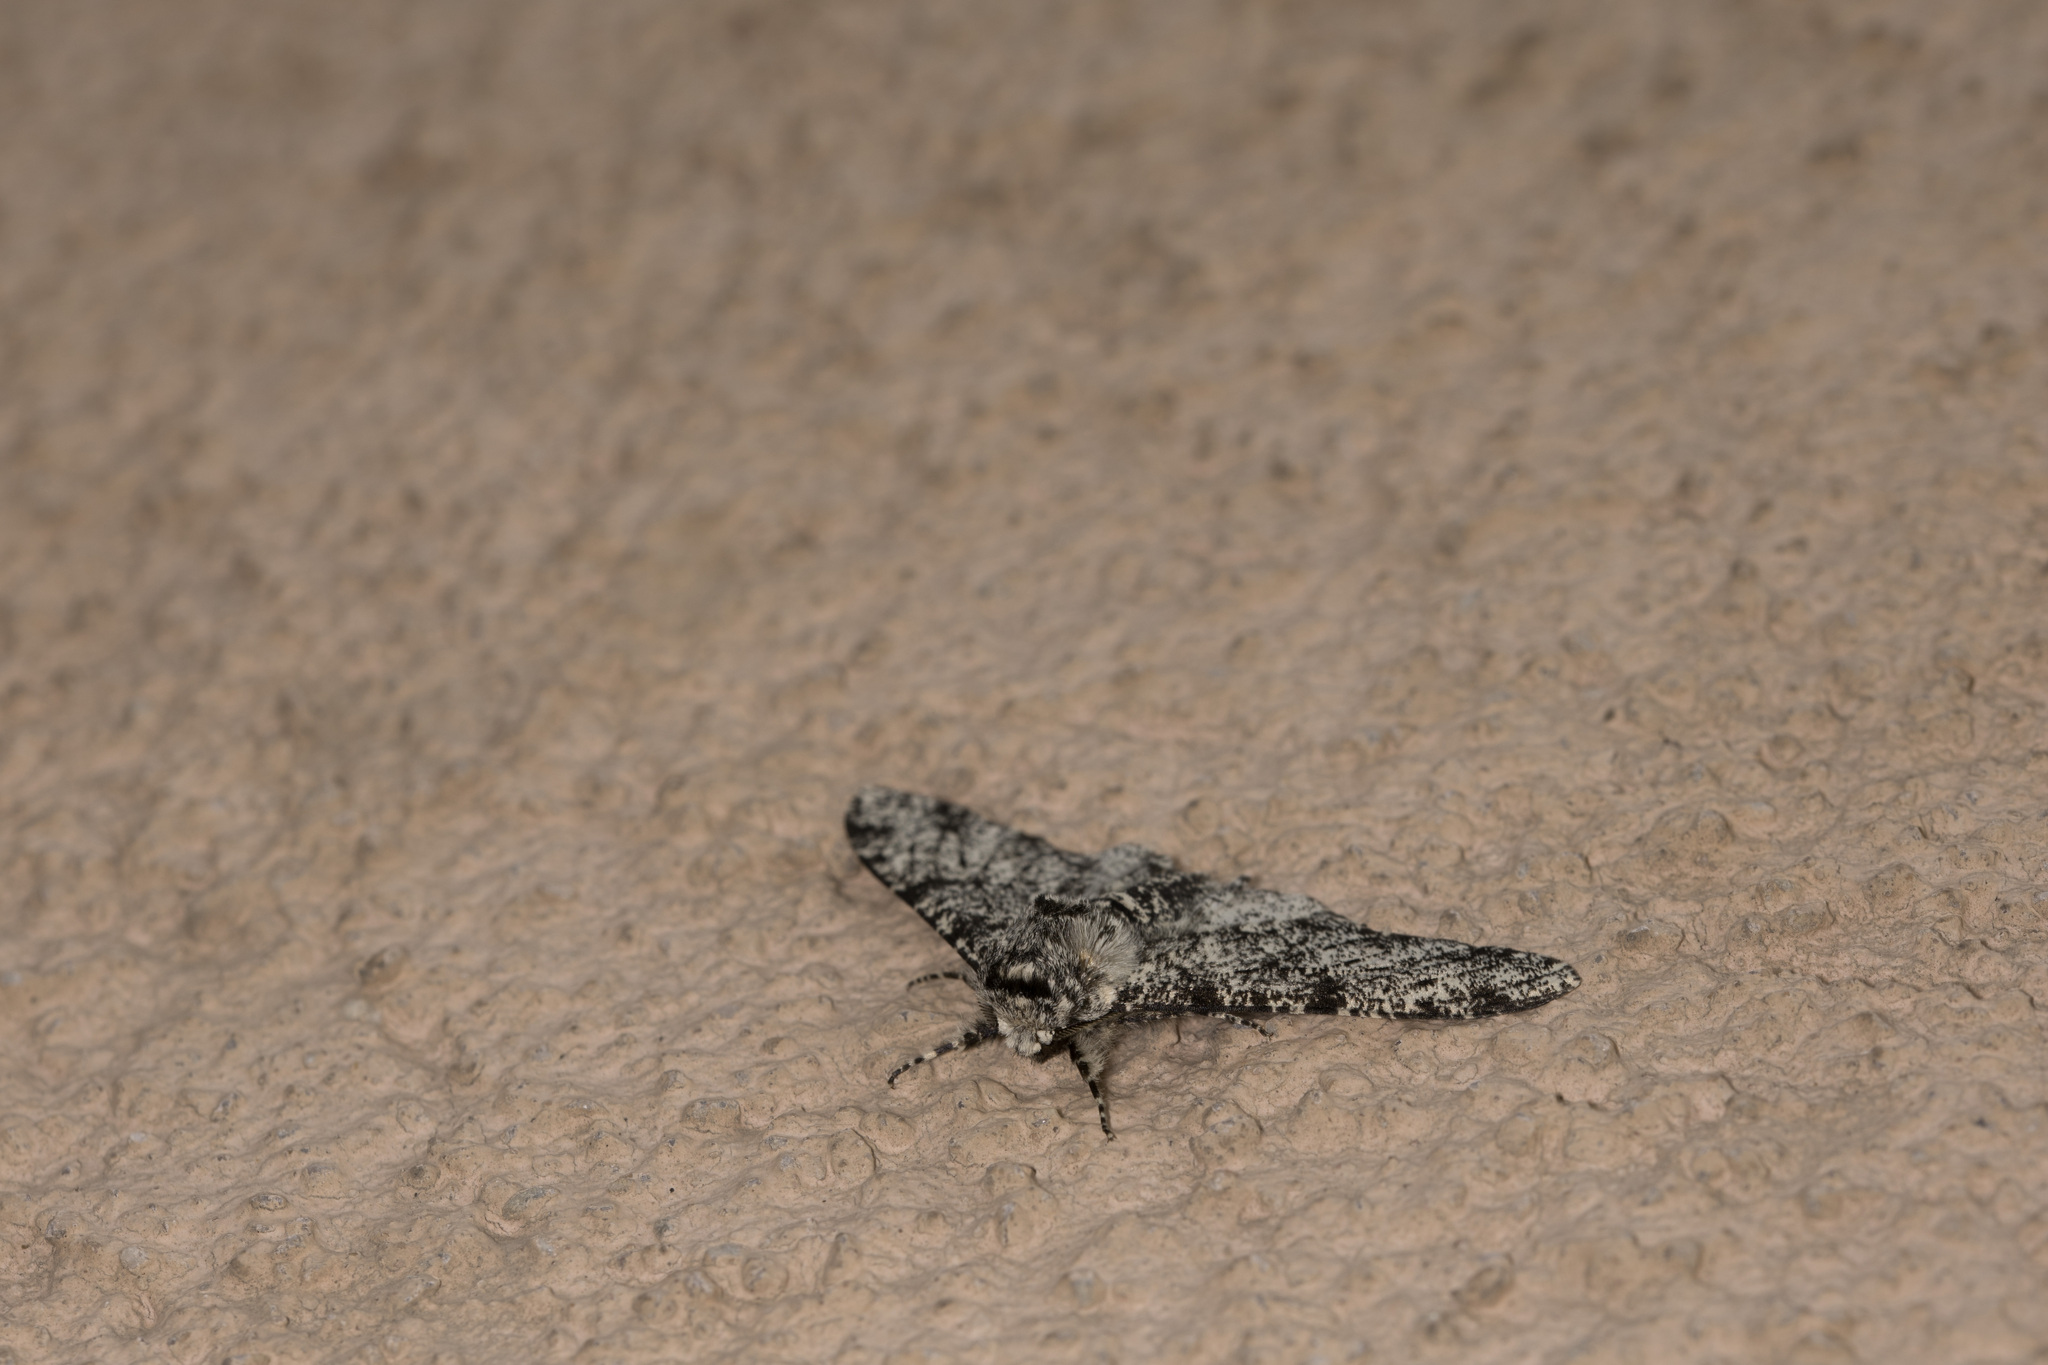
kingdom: Animalia
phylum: Arthropoda
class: Insecta
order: Lepidoptera
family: Geometridae
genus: Biston
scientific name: Biston betularia
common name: Peppered moth
